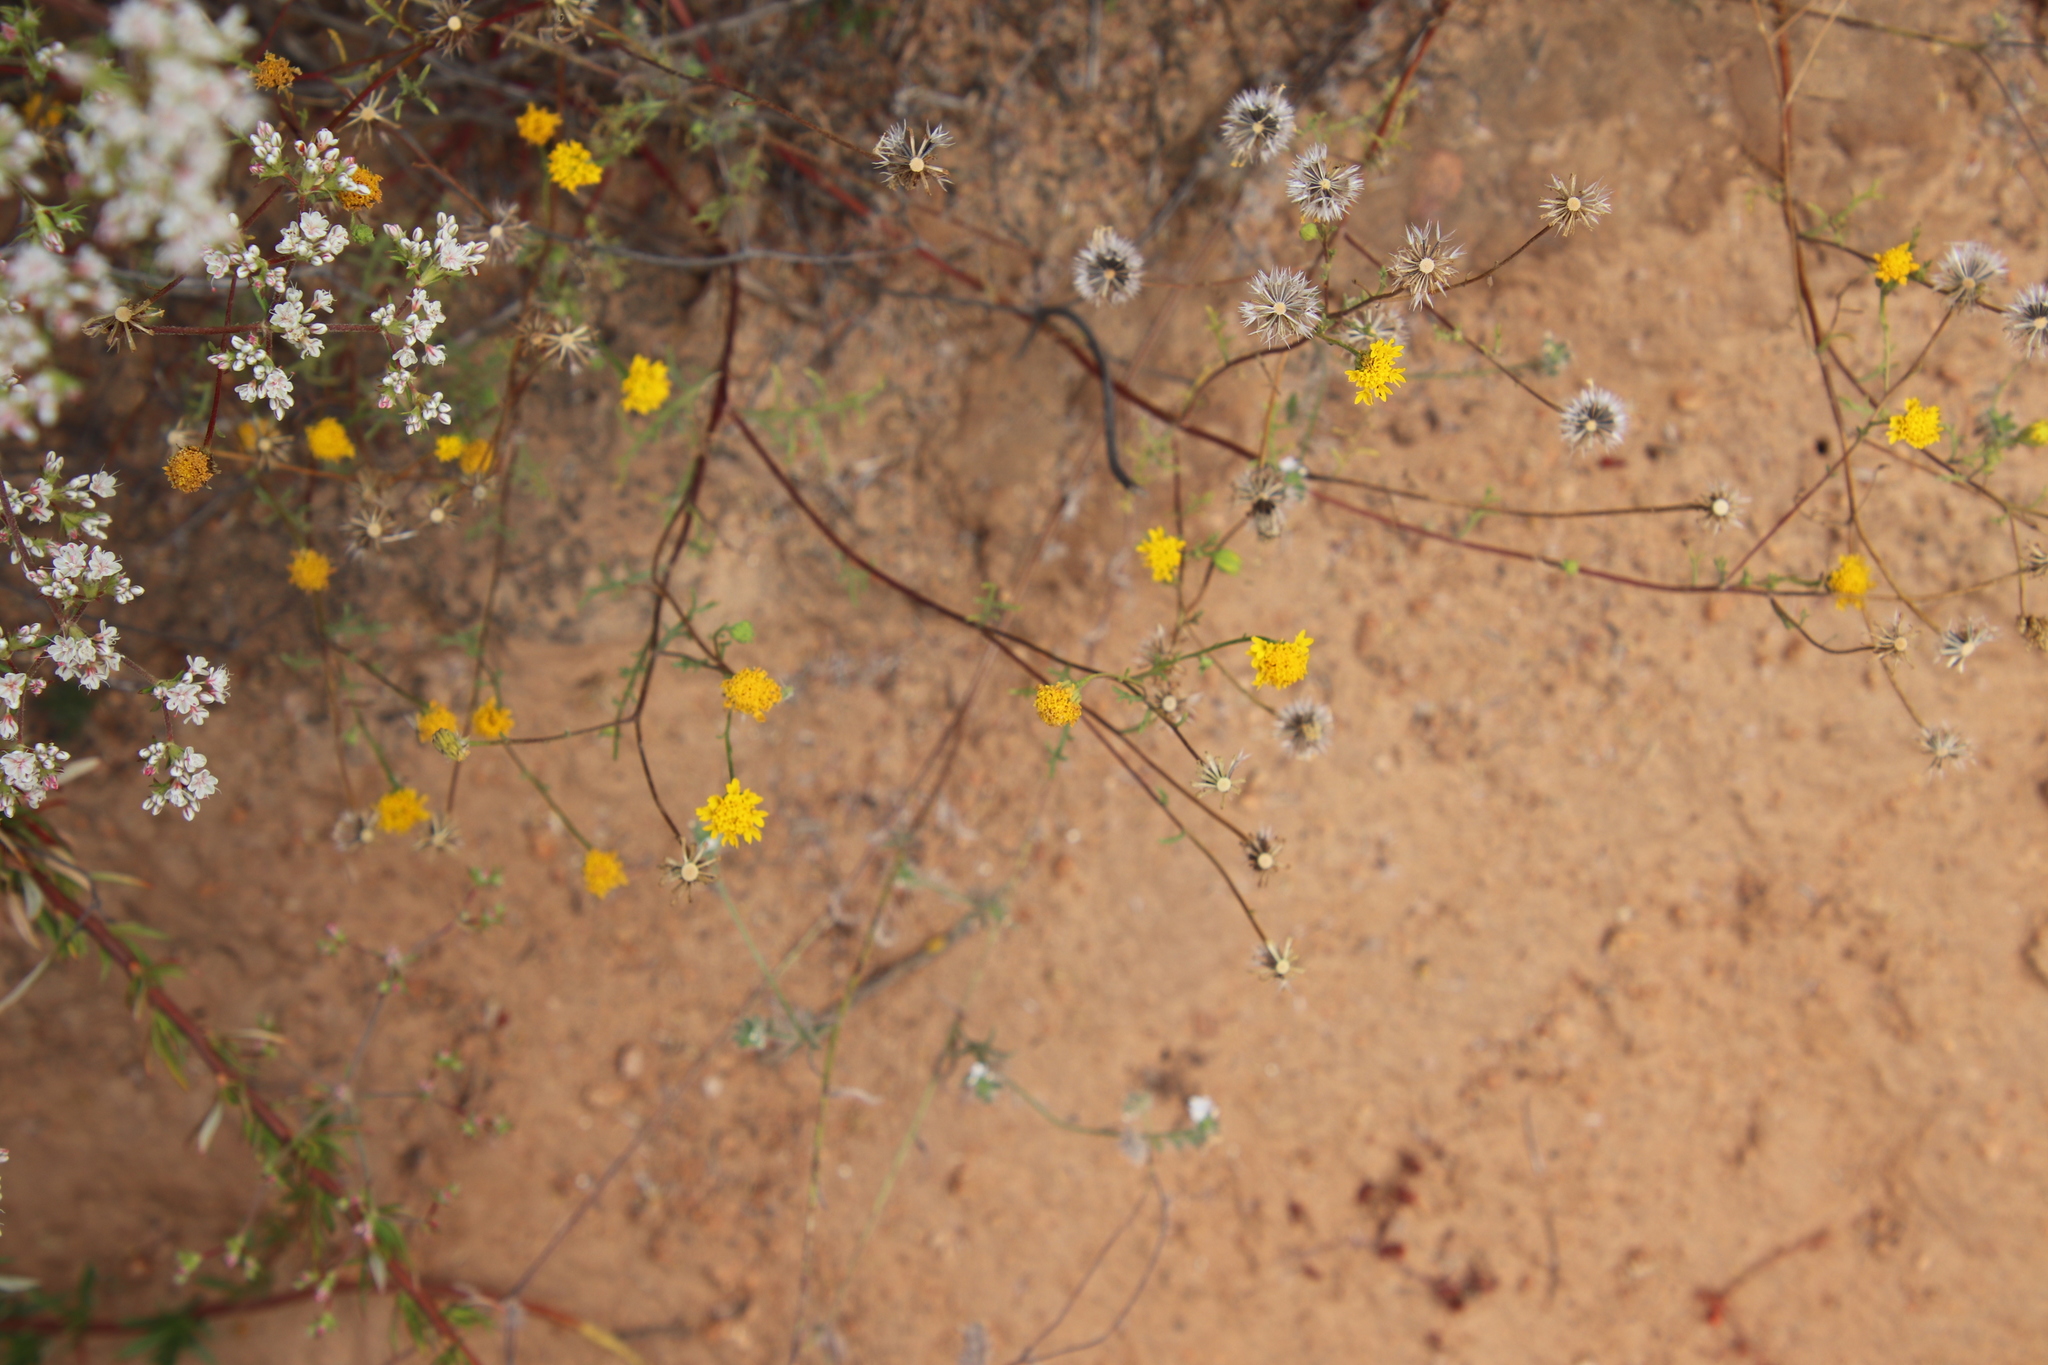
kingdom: Plantae
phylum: Tracheophyta
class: Magnoliopsida
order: Asterales
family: Asteraceae
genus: Chaenactis
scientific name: Chaenactis glabriuscula
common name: Yellow pincushion
